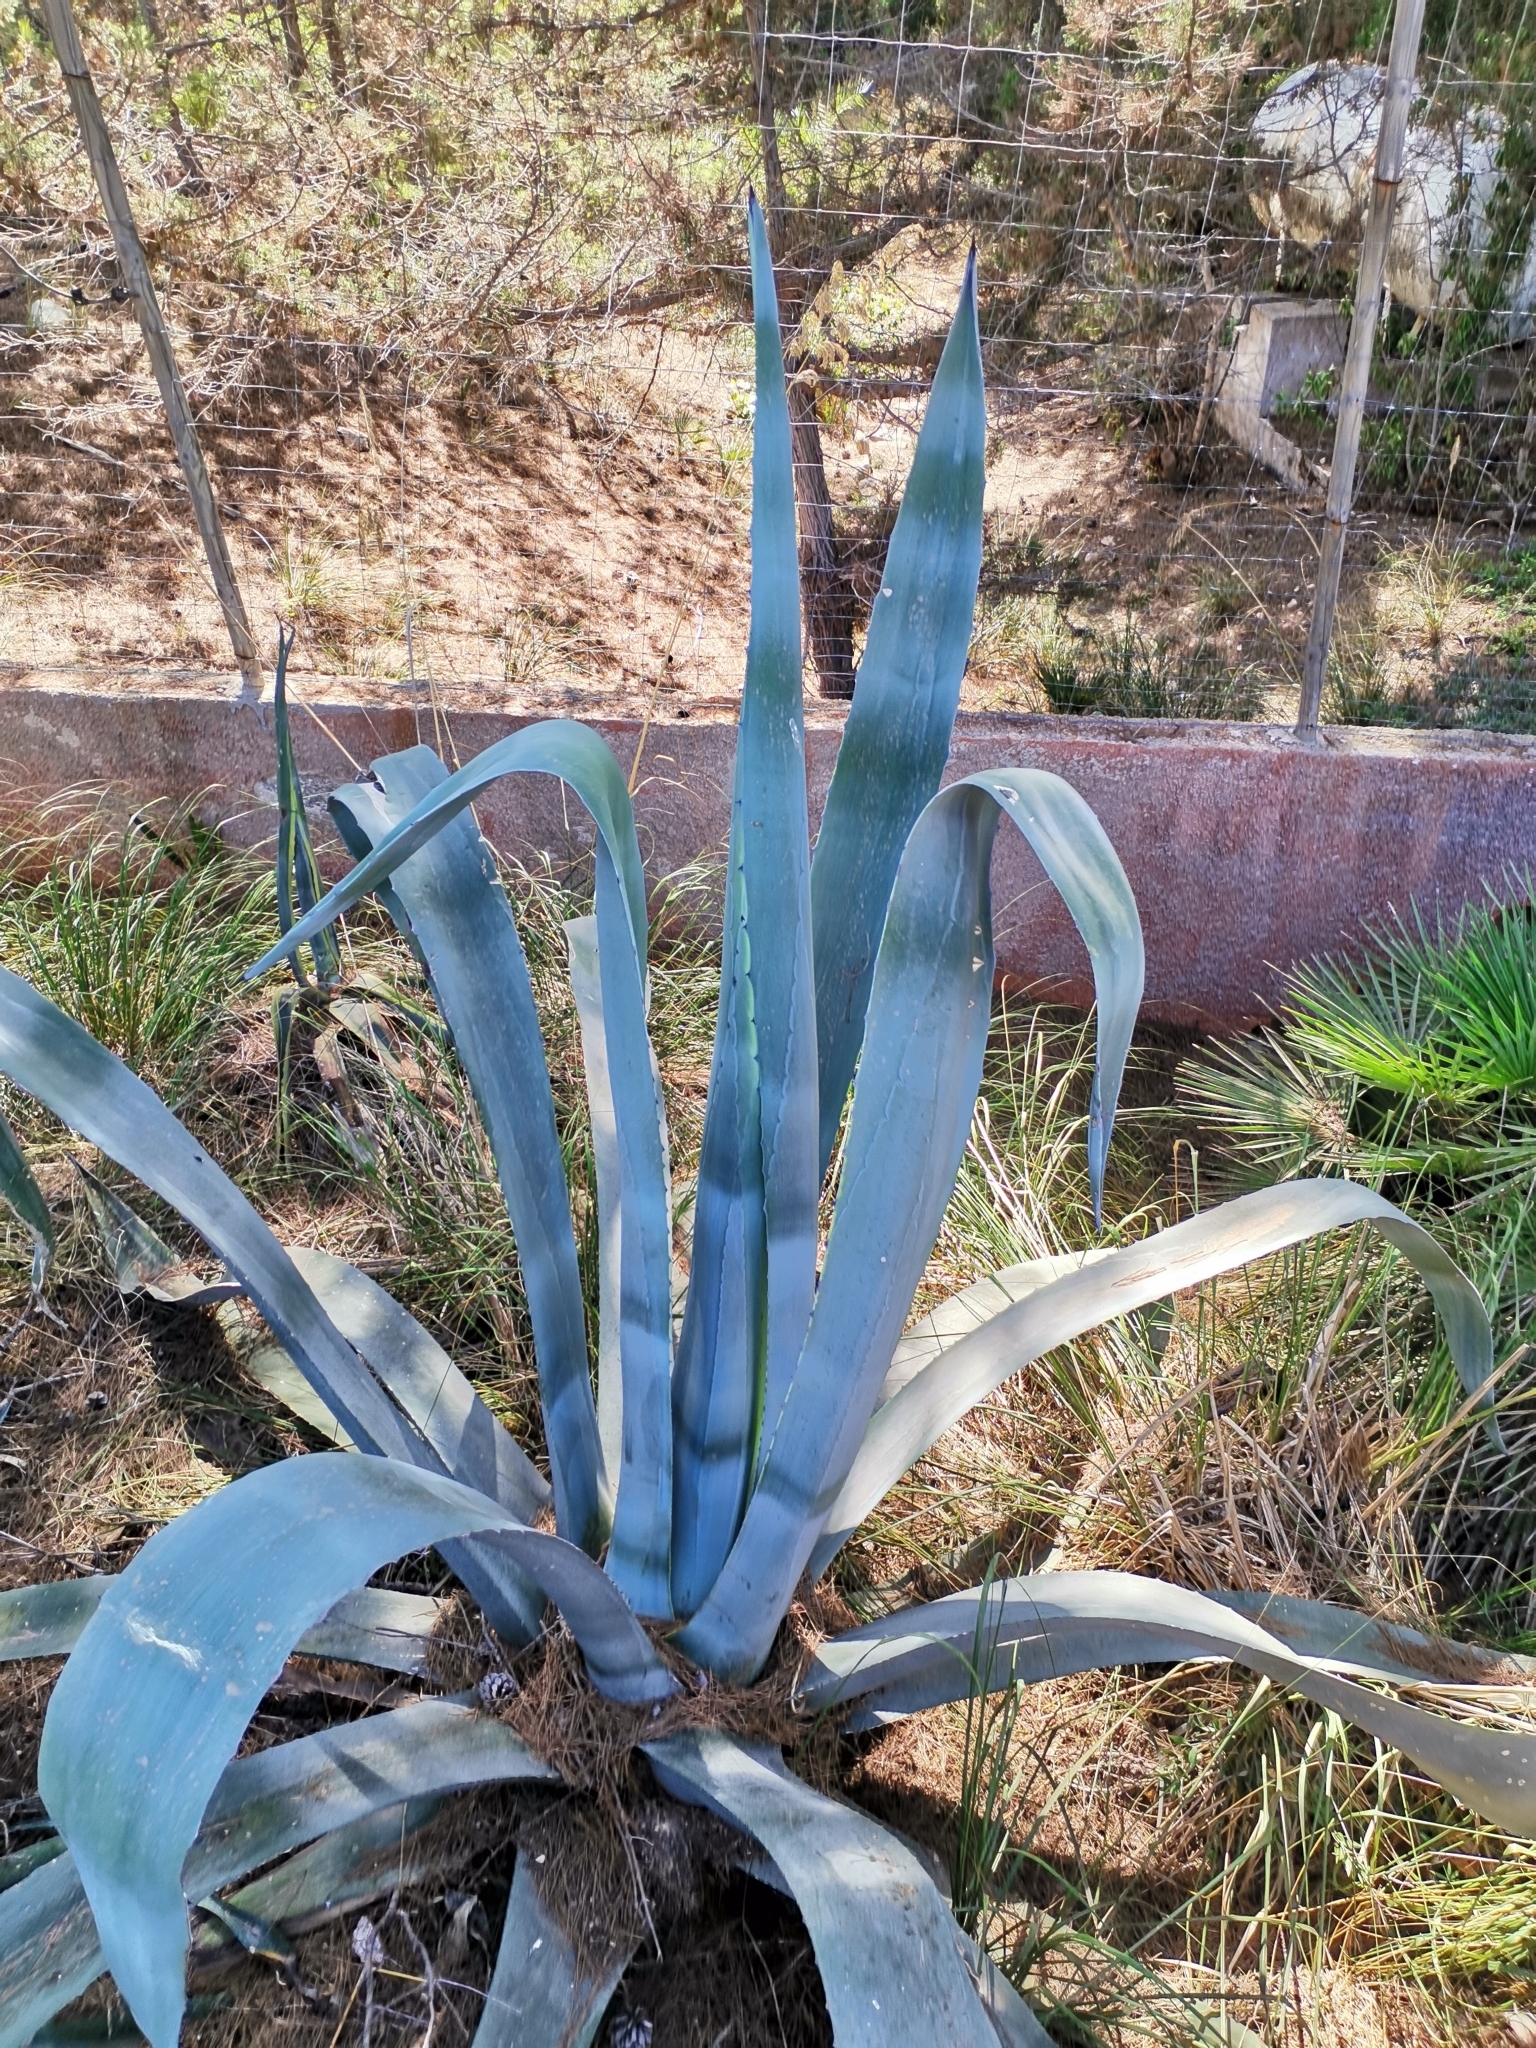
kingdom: Plantae
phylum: Tracheophyta
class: Liliopsida
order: Asparagales
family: Asparagaceae
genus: Agave
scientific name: Agave americana
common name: Centuryplant
